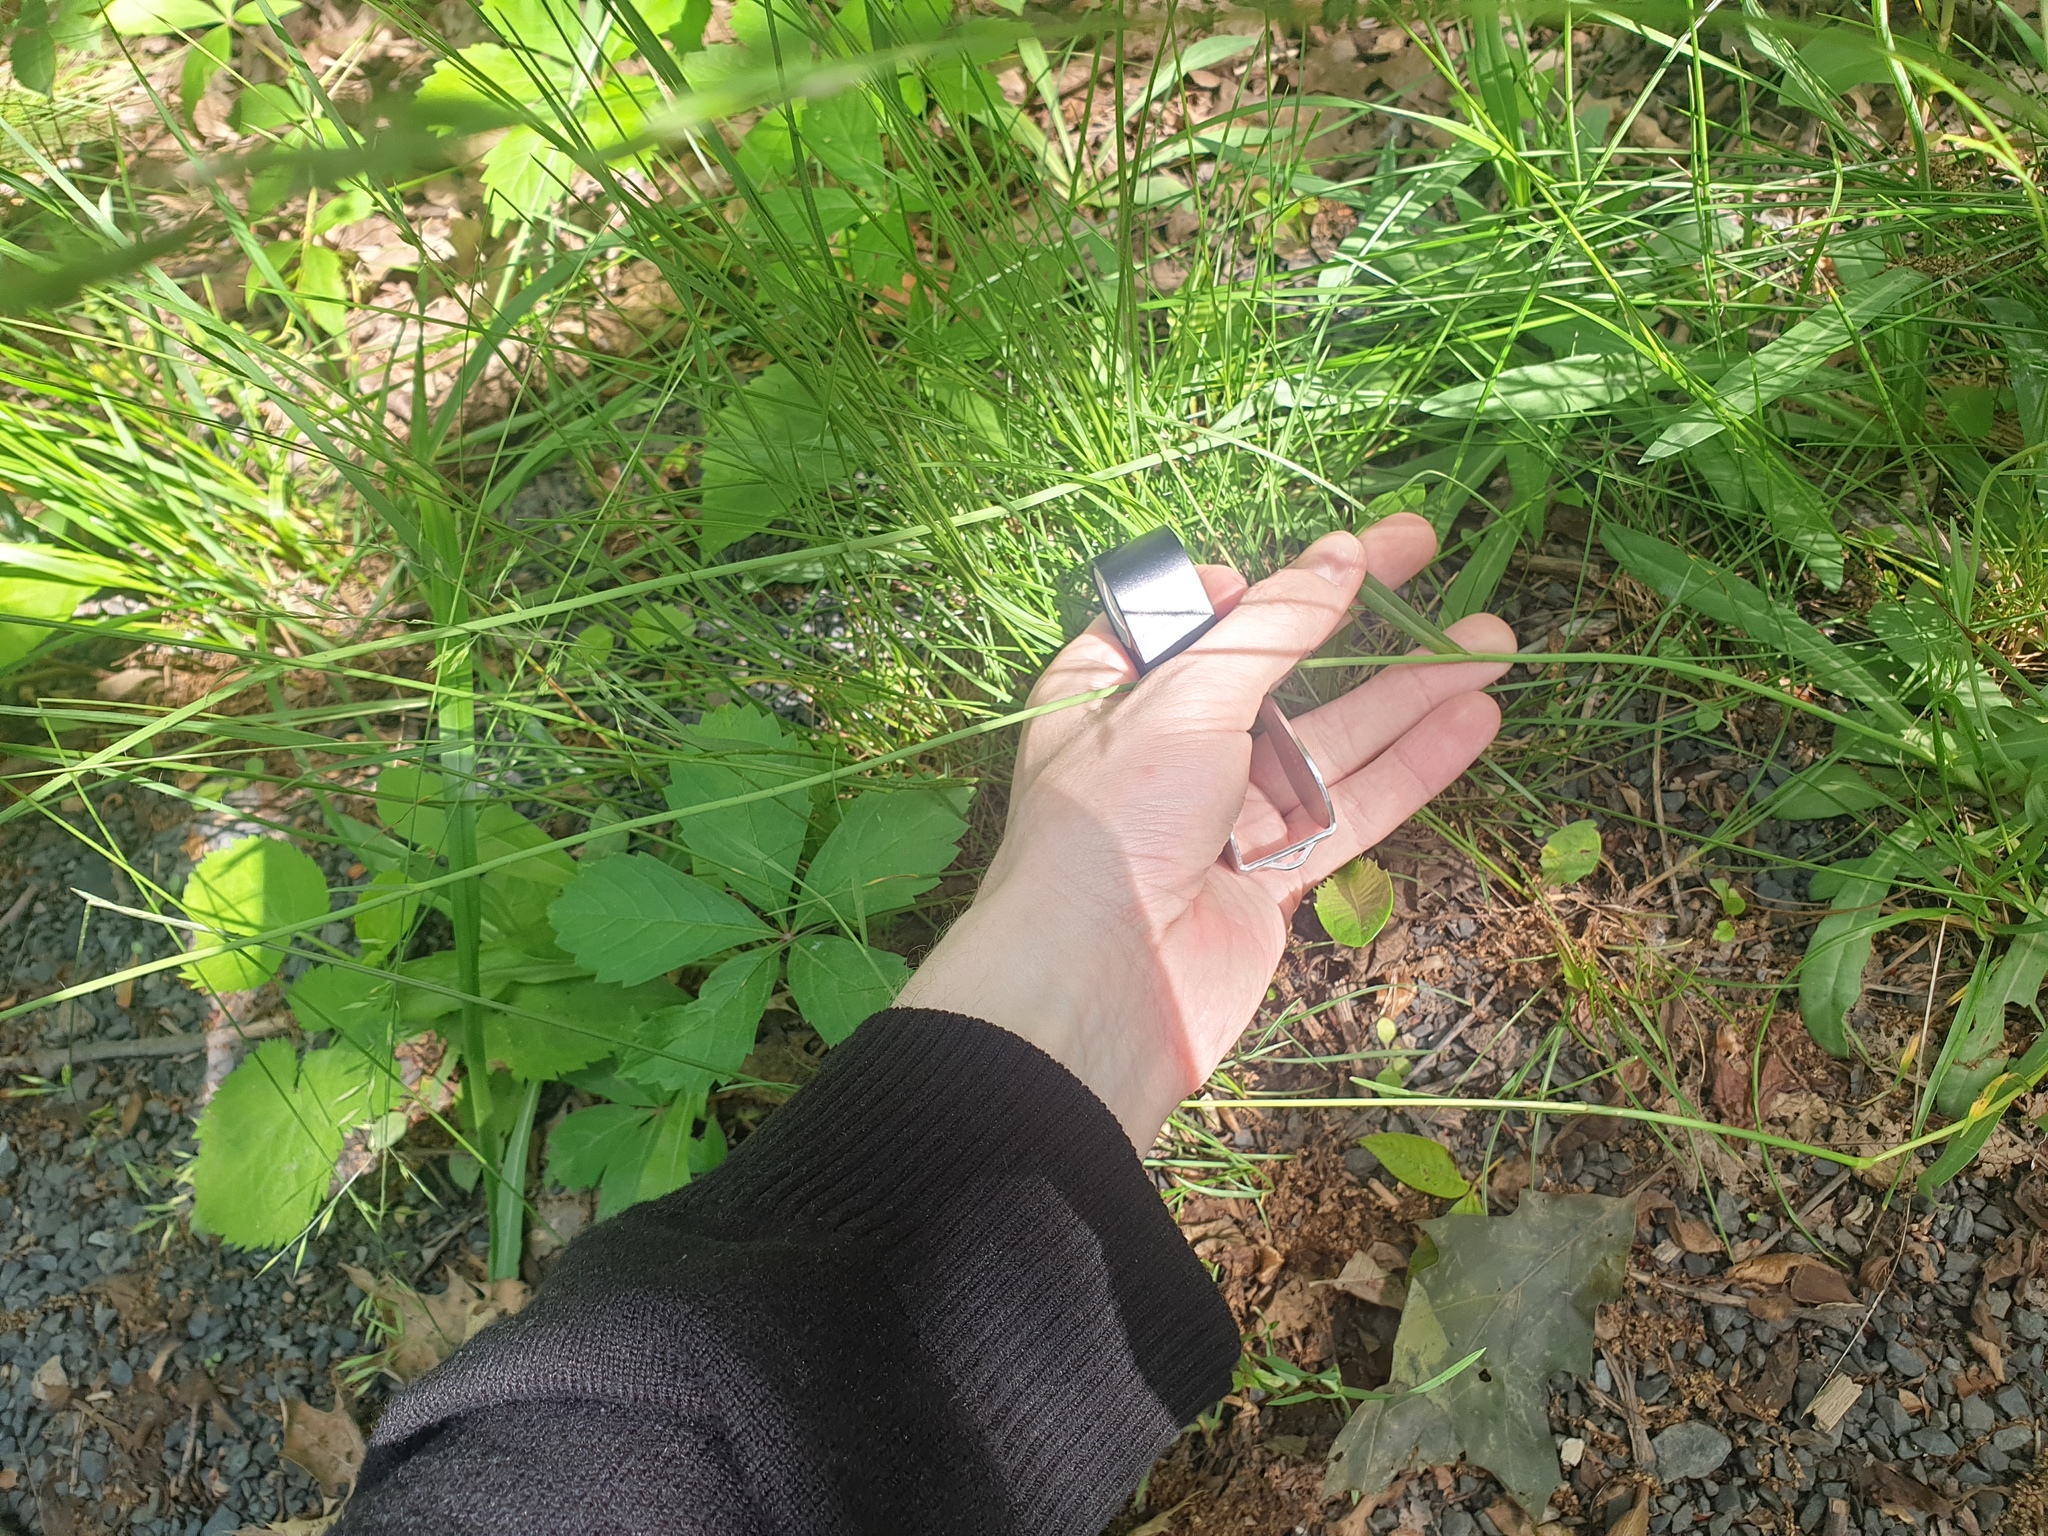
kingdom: Plantae
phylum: Tracheophyta
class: Magnoliopsida
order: Asterales
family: Asteraceae
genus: Pilosella
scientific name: Pilosella piloselloides
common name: Glaucous king-devil
